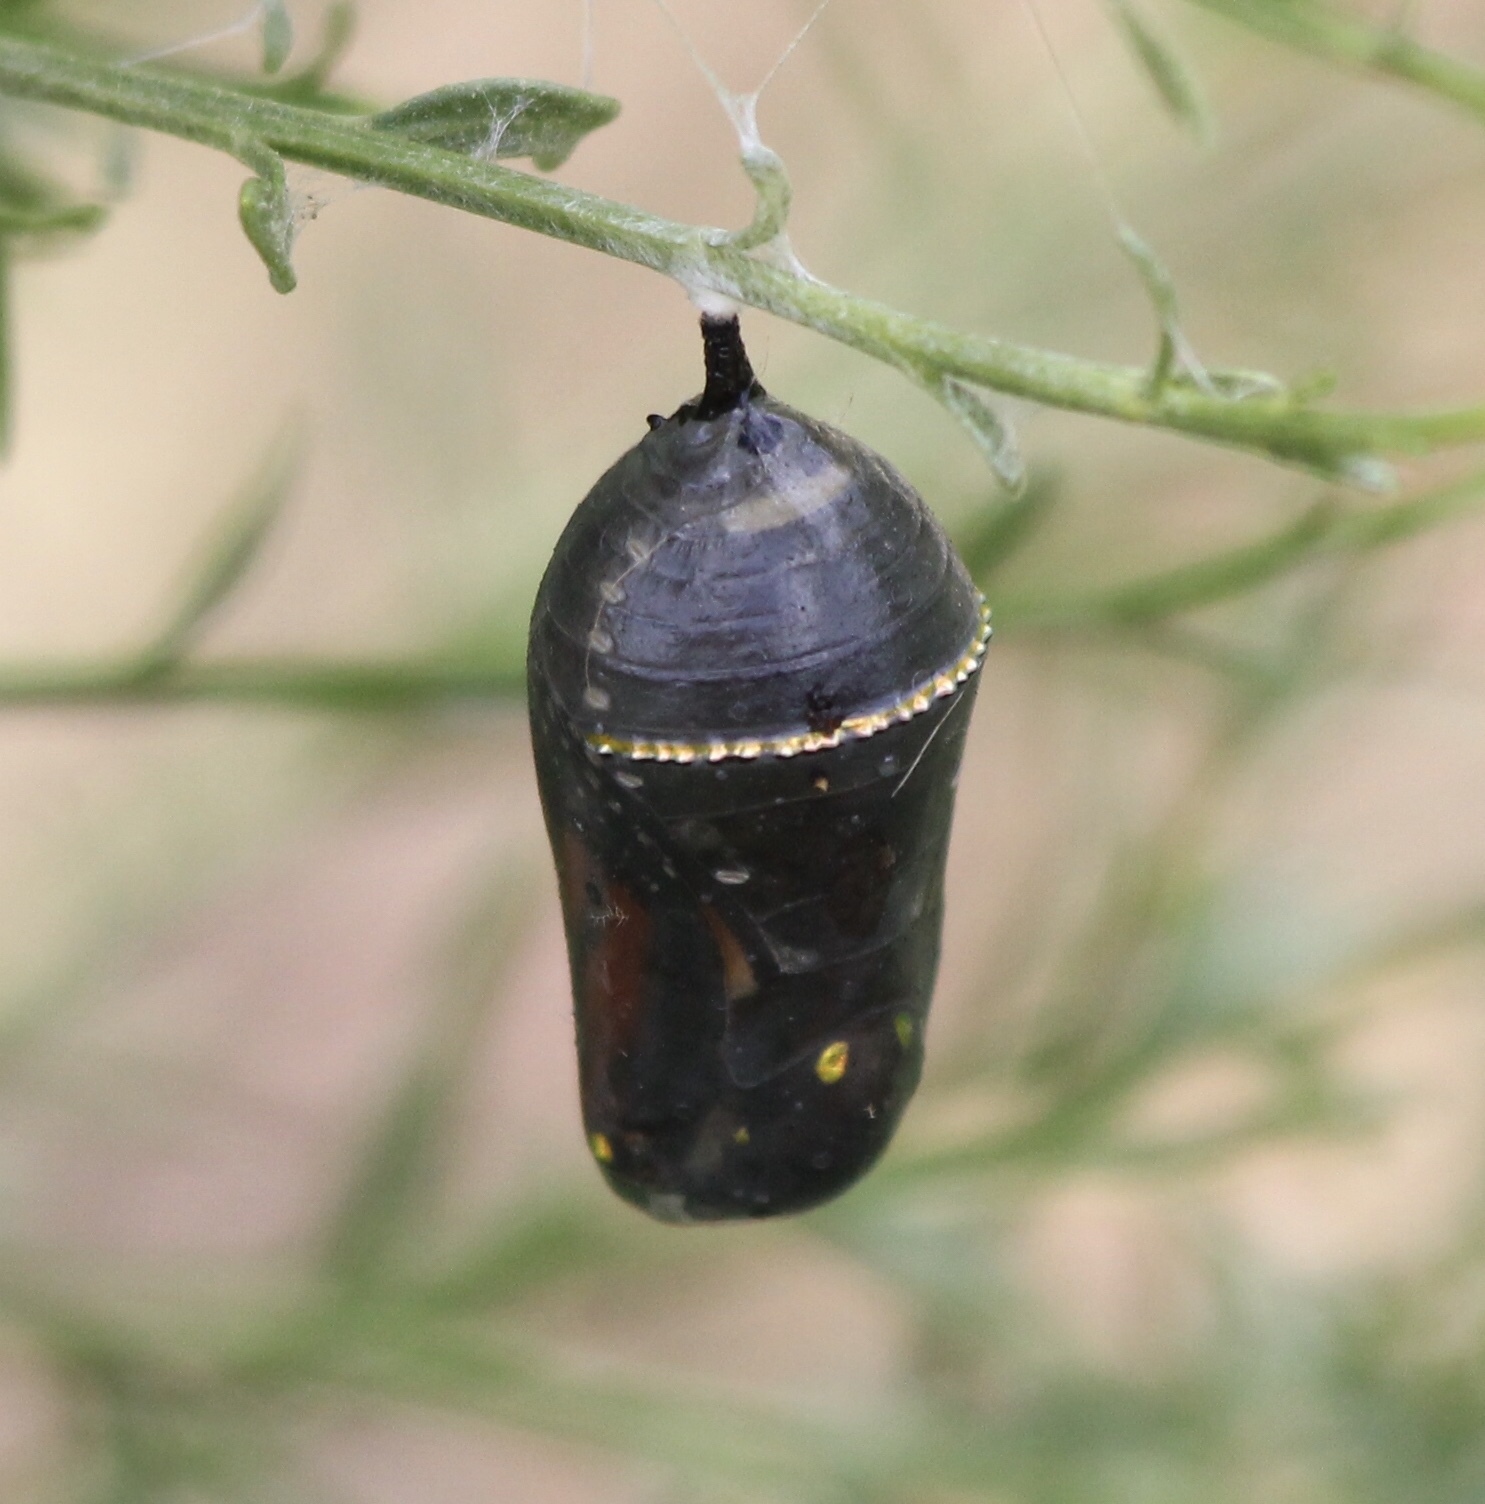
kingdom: Animalia
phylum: Arthropoda
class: Insecta
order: Lepidoptera
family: Nymphalidae
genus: Danaus
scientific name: Danaus plexippus
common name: Monarch
